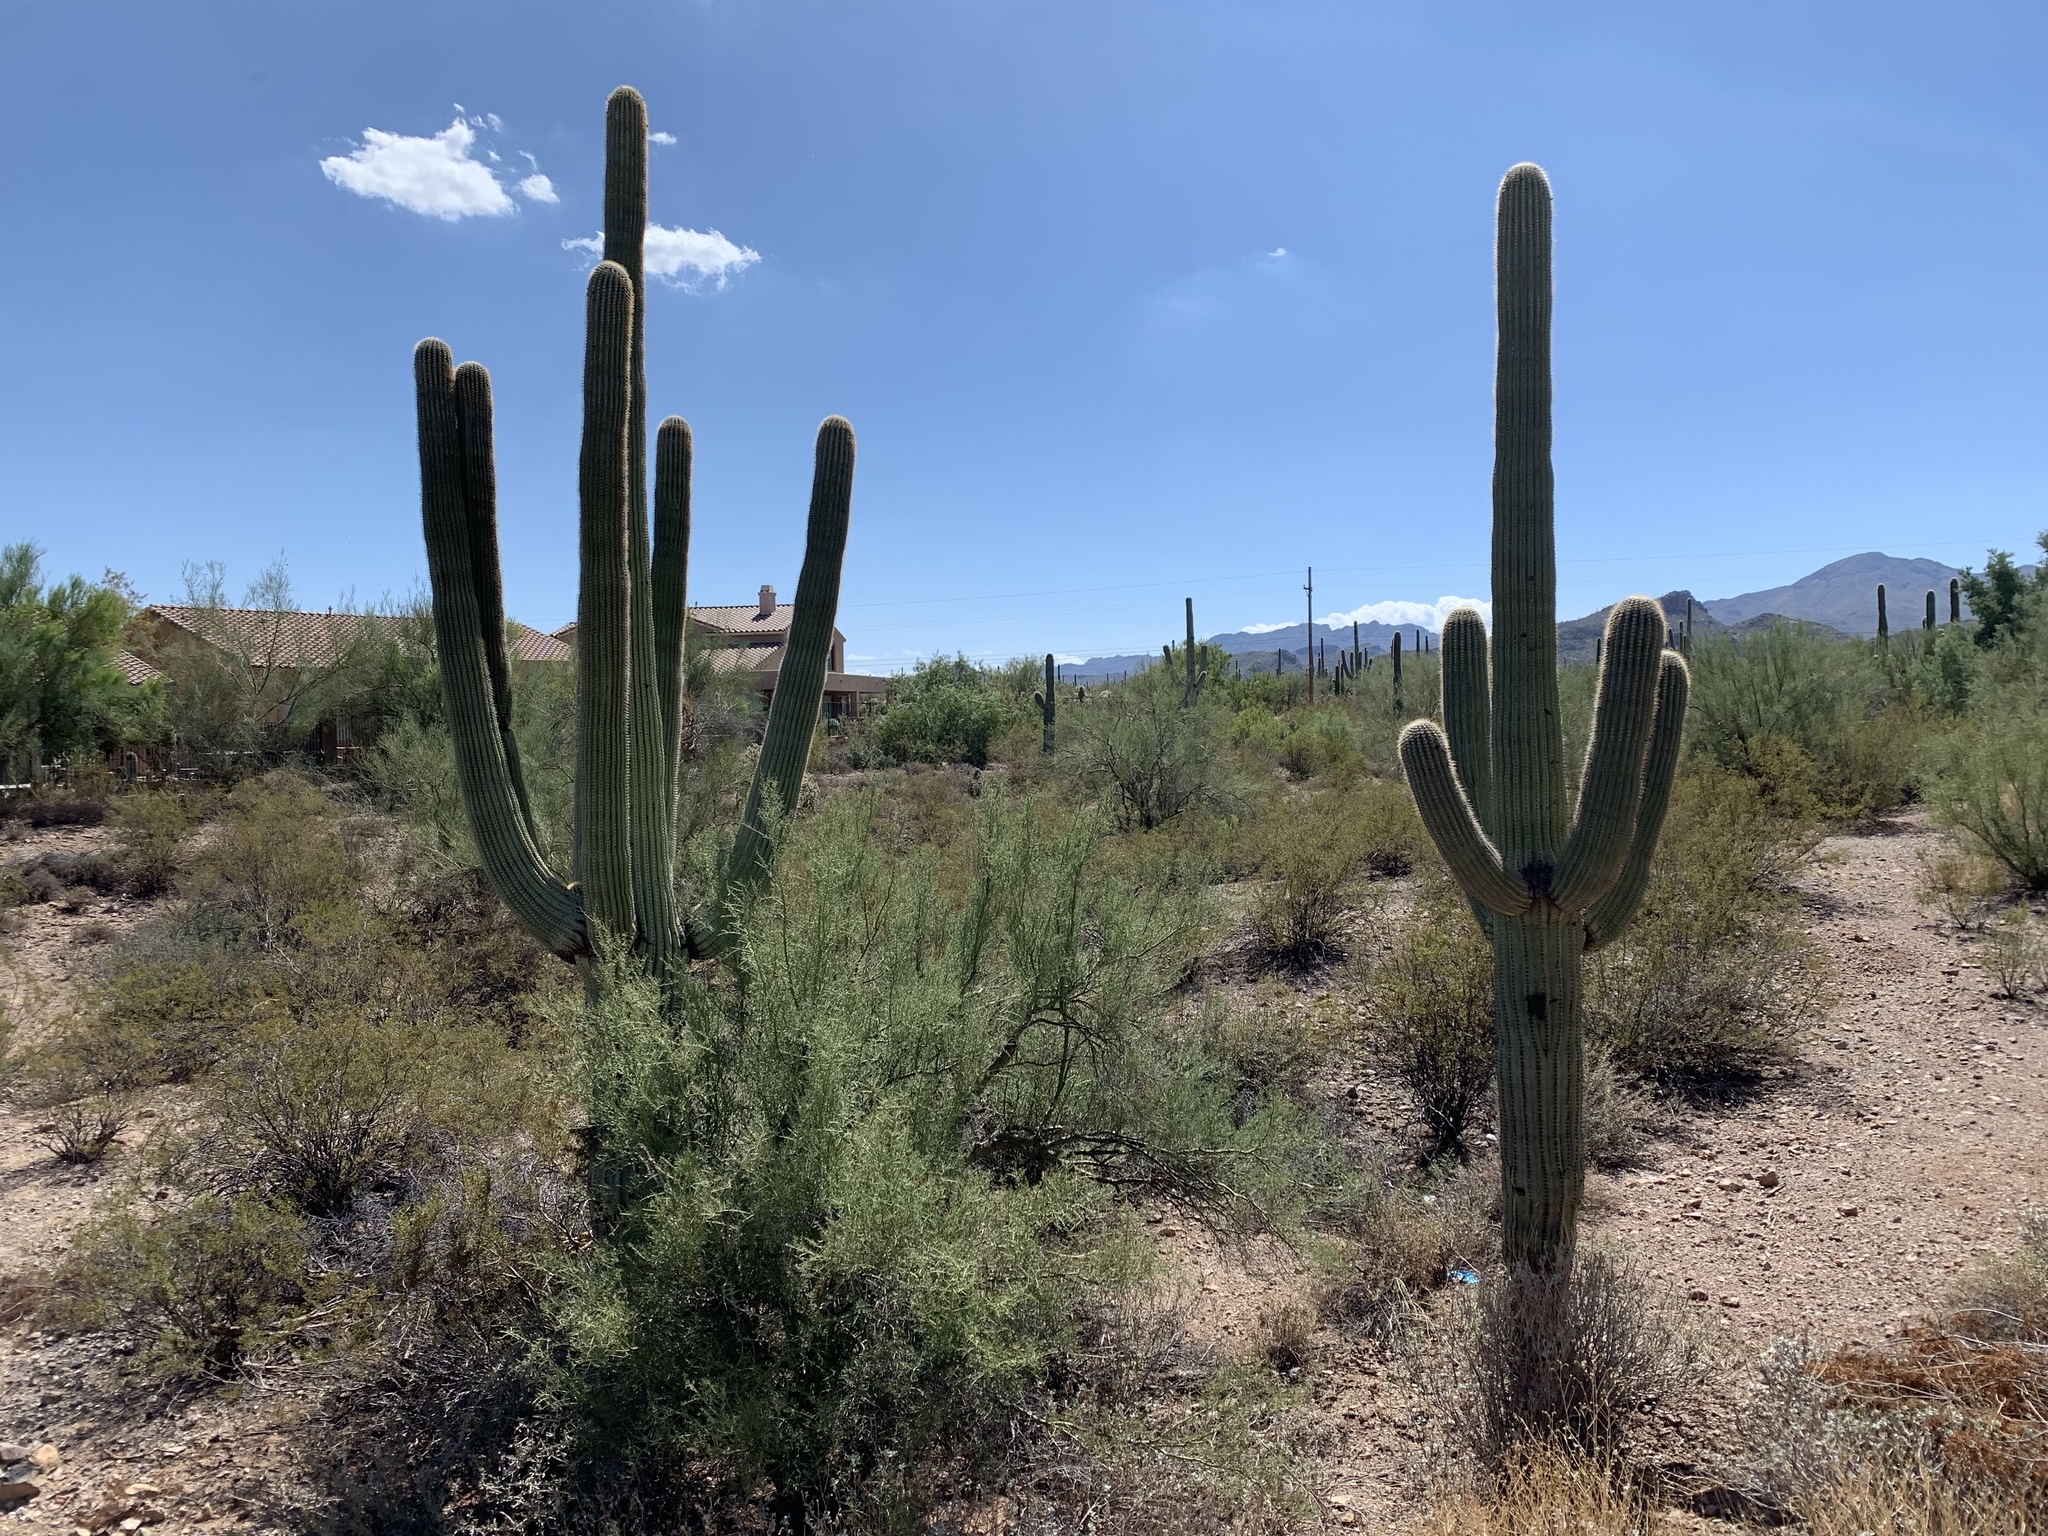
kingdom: Plantae
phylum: Tracheophyta
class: Magnoliopsida
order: Caryophyllales
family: Cactaceae
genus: Carnegiea
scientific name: Carnegiea gigantea
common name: Saguaro
